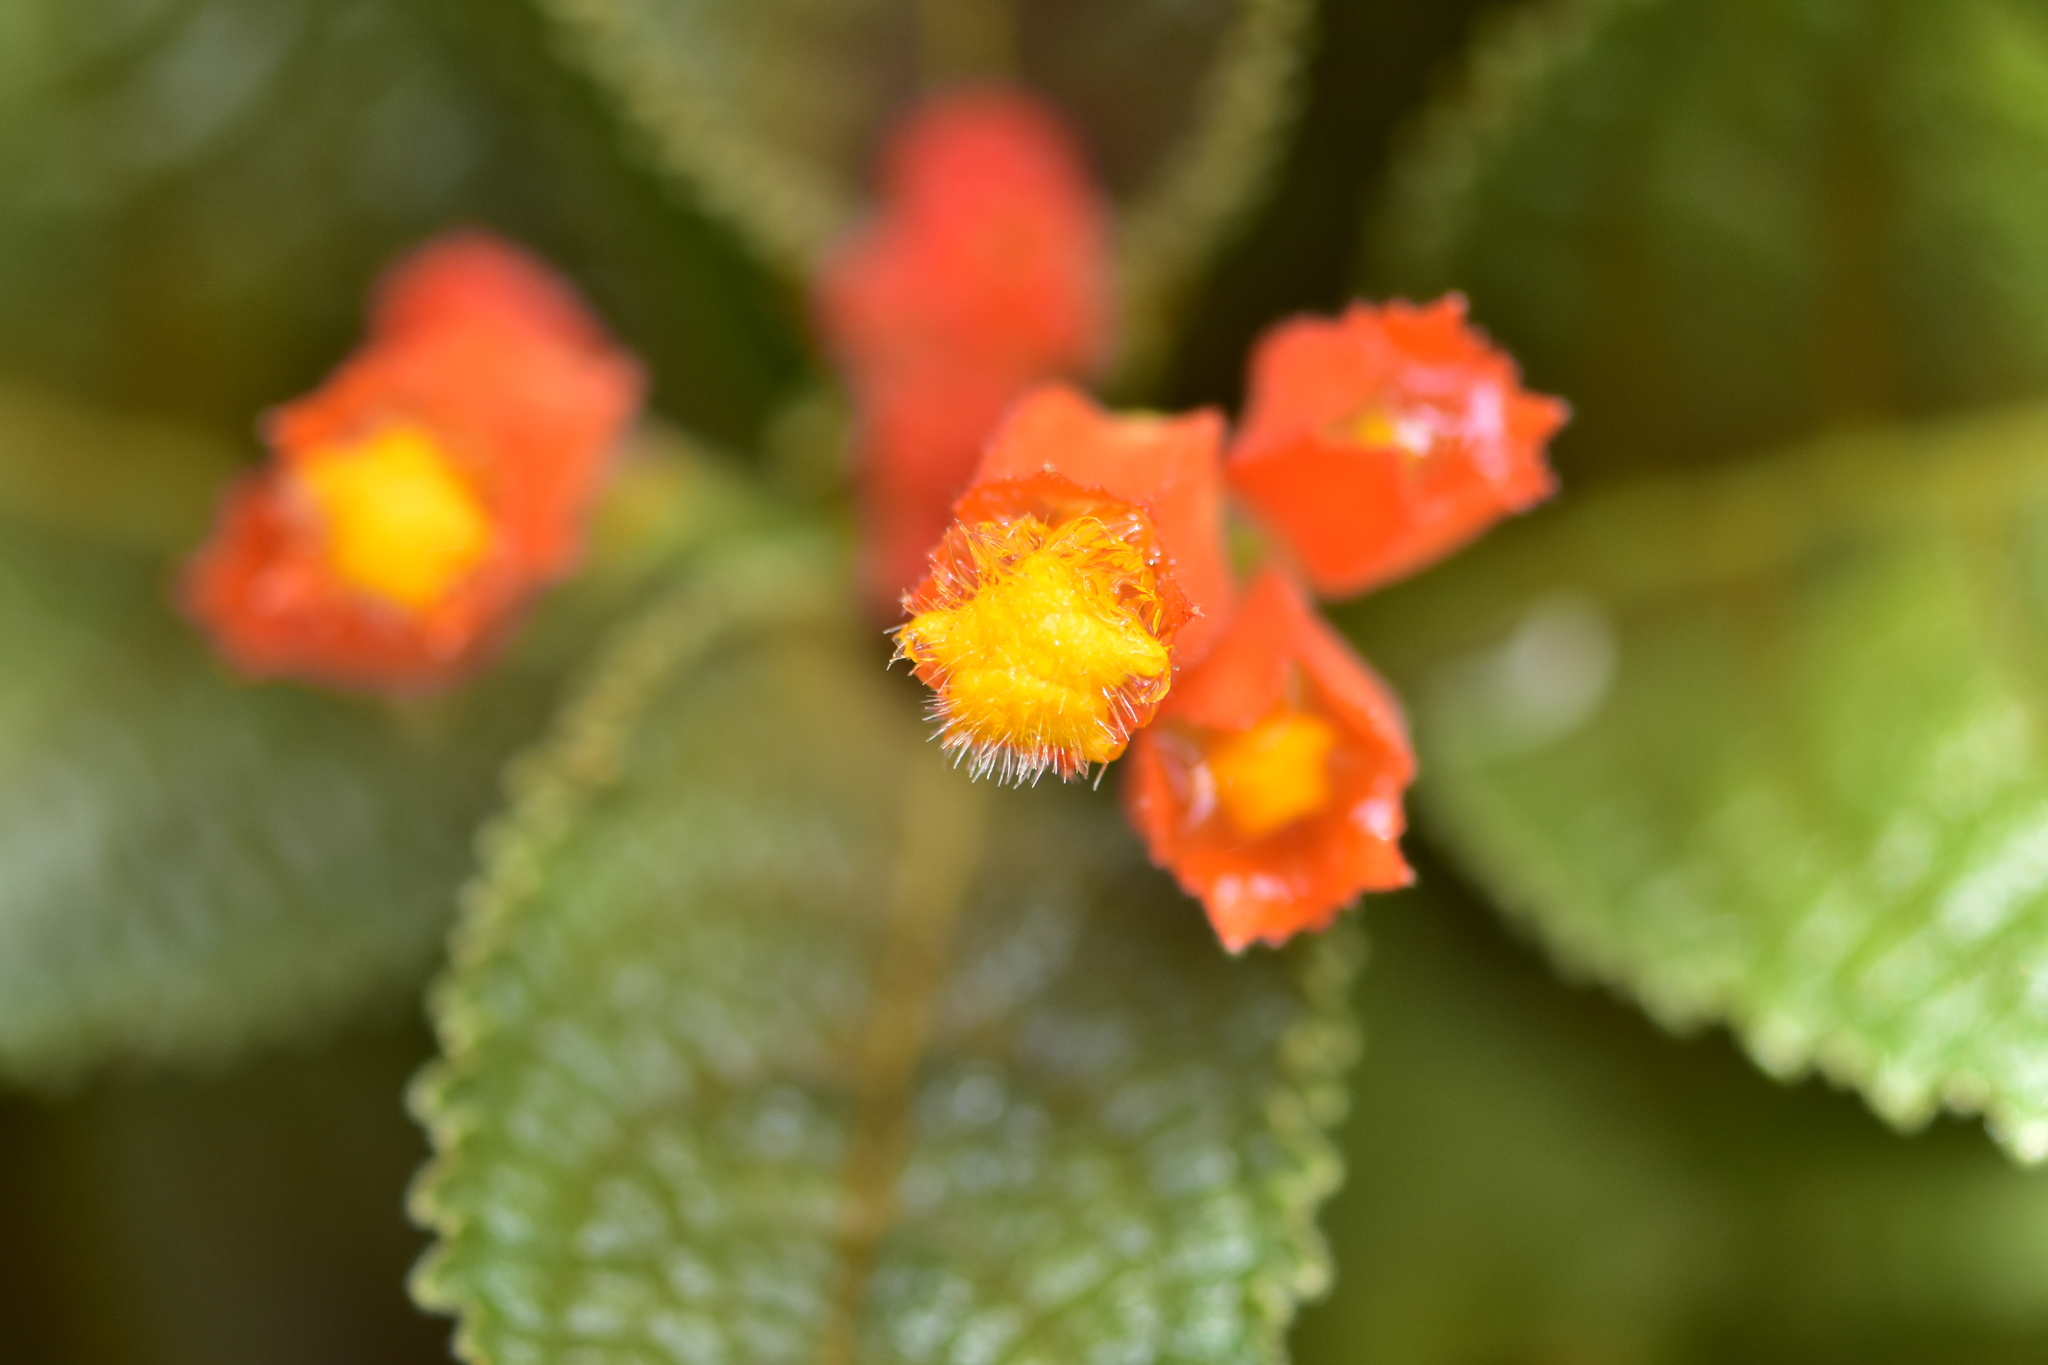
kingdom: Plantae
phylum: Tracheophyta
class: Magnoliopsida
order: Lamiales
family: Gesneriaceae
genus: Chrysothemis
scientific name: Chrysothemis pulchella
